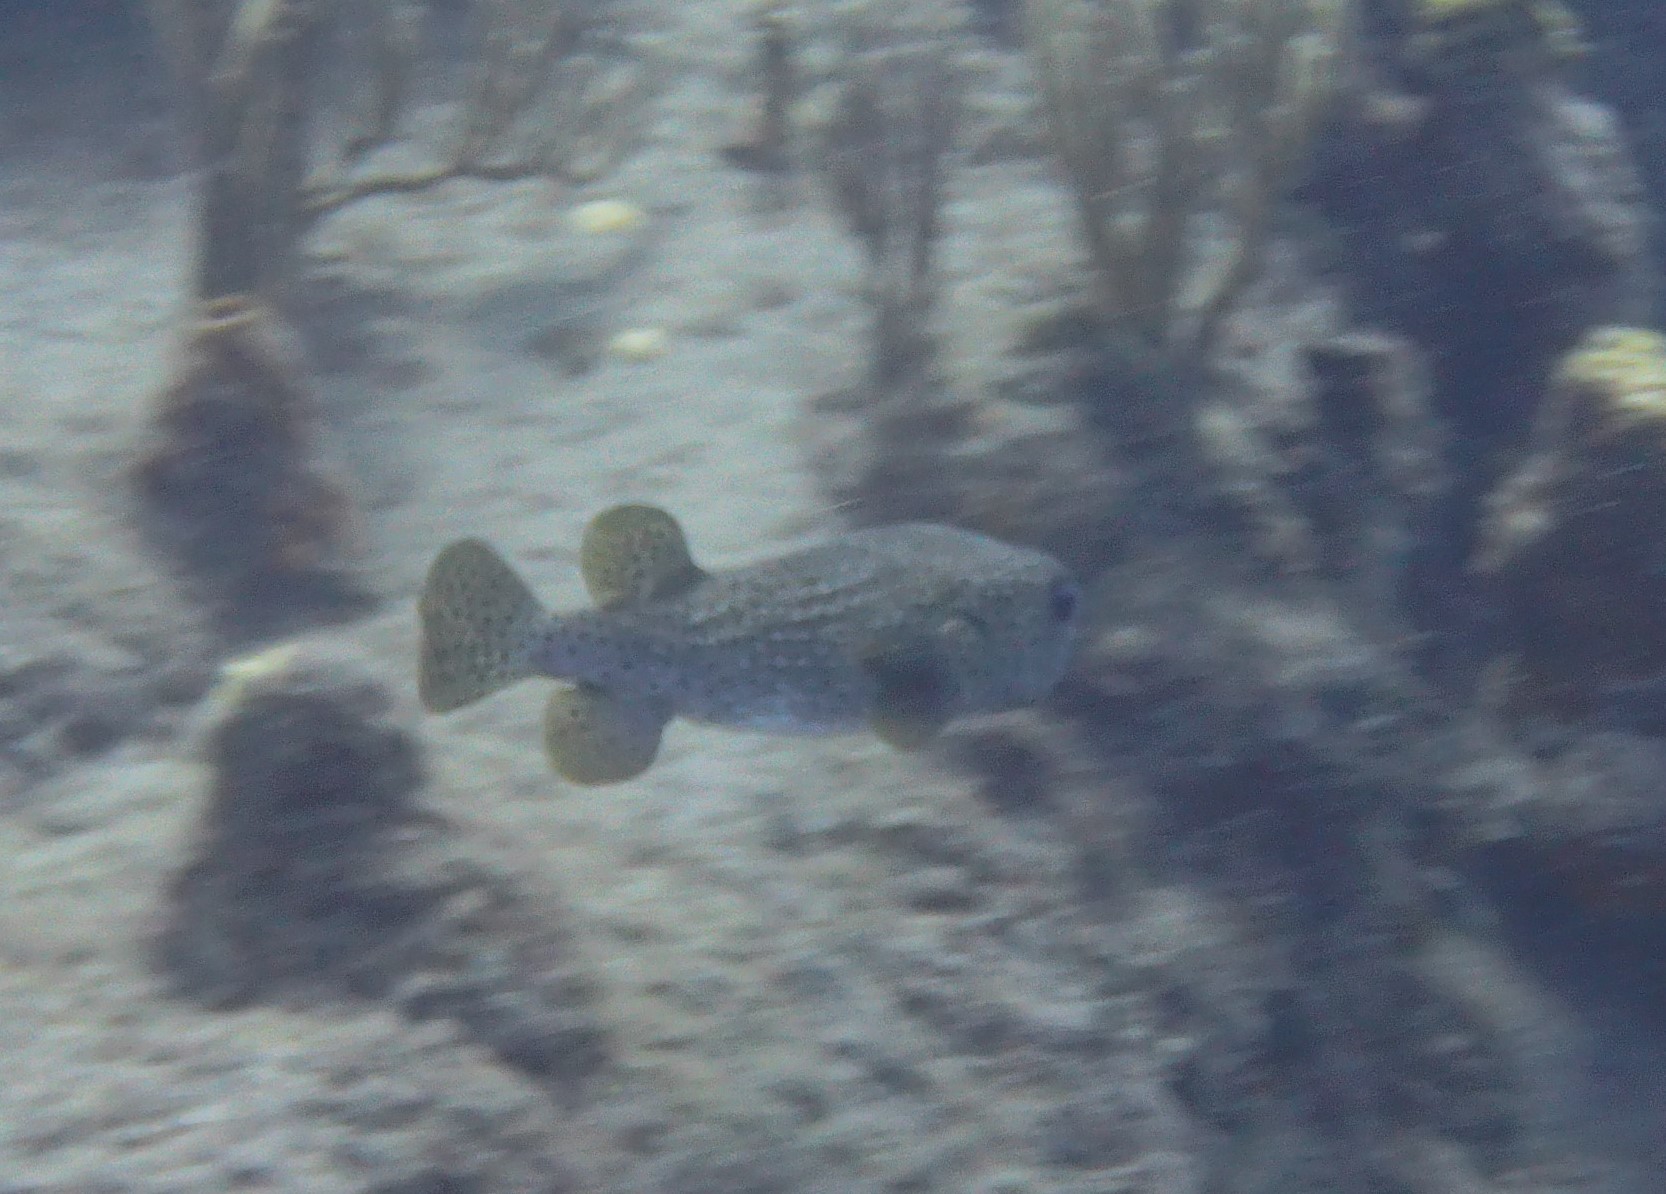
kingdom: Animalia
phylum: Chordata
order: Tetraodontiformes
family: Diodontidae
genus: Diodon
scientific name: Diodon hystrix
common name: Giant porcupinefish
